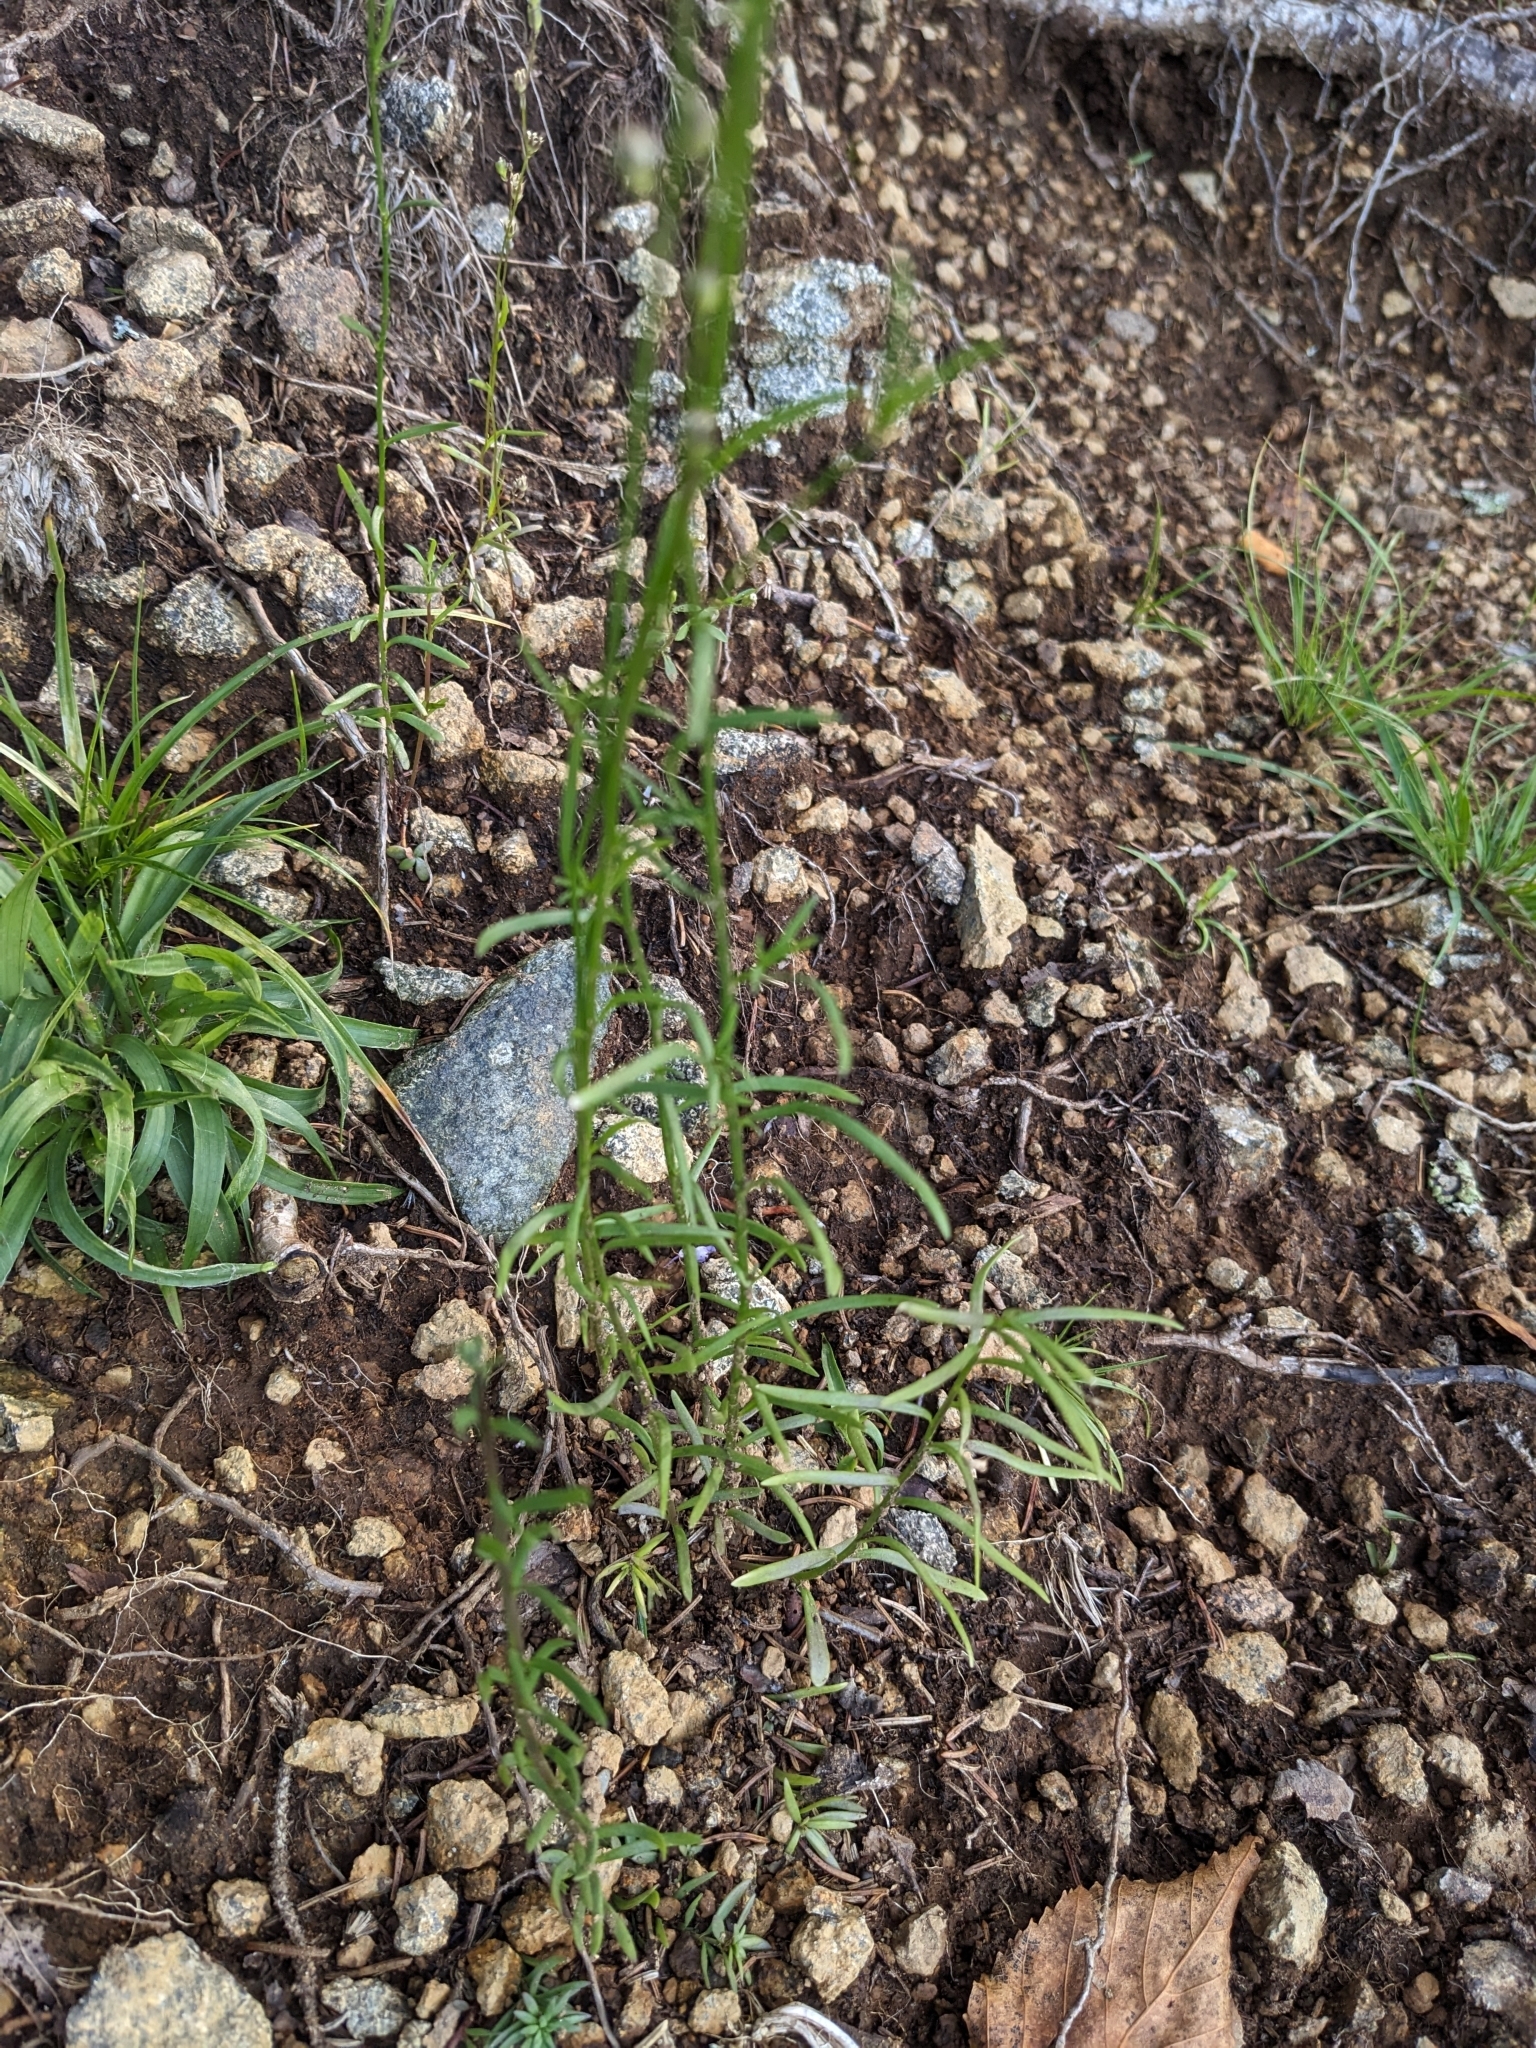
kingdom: Plantae
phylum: Tracheophyta
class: Magnoliopsida
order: Lamiales
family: Plantaginaceae
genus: Nuttallanthus
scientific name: Nuttallanthus canadensis
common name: Blue toadflax
